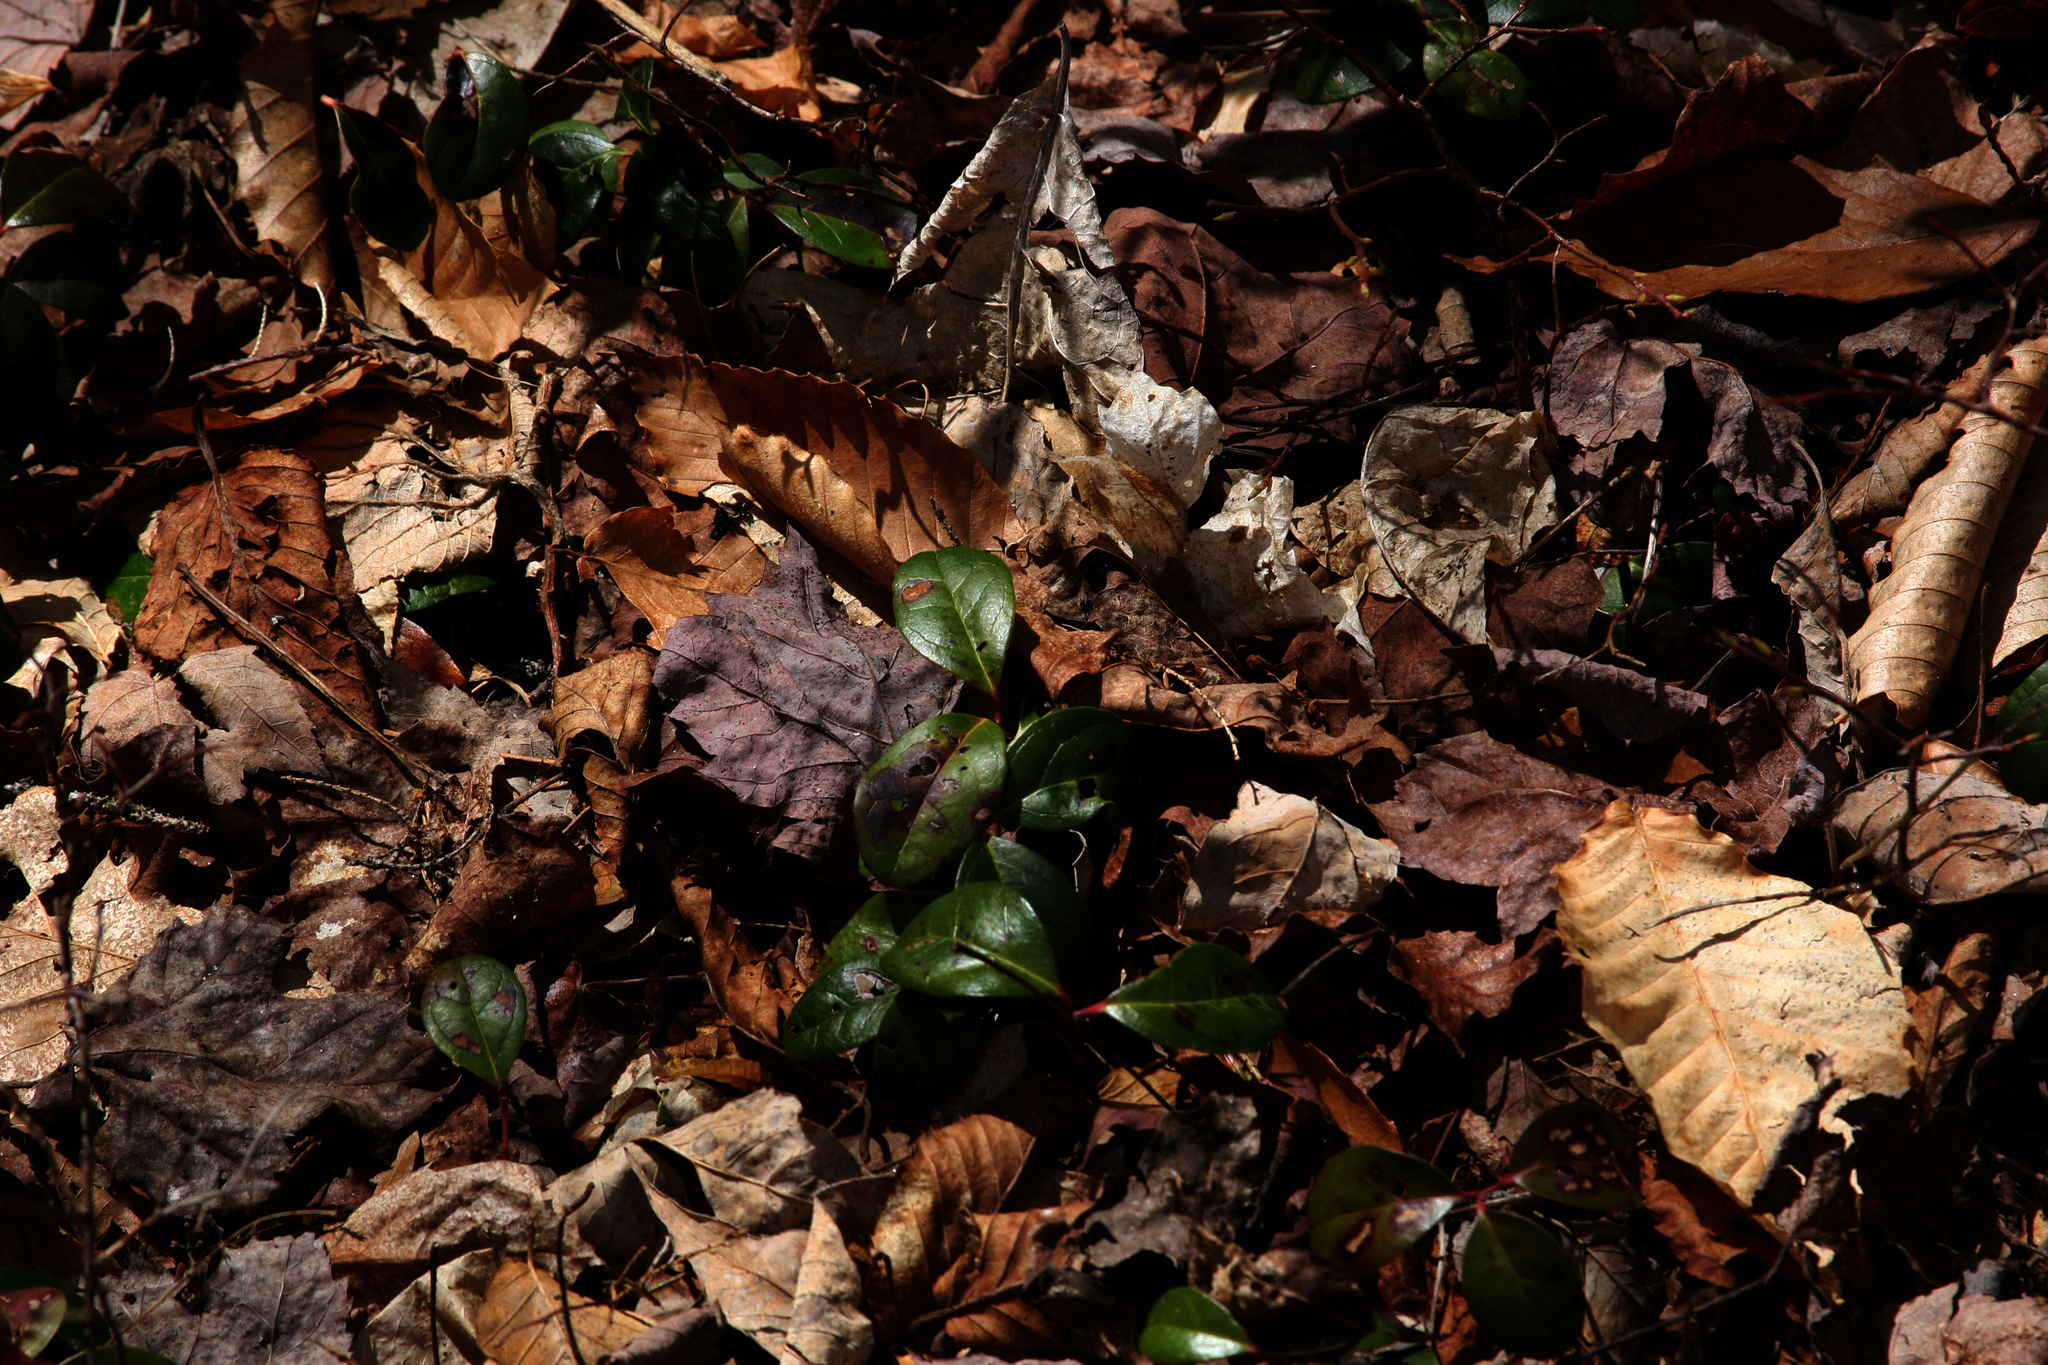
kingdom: Plantae
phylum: Tracheophyta
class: Magnoliopsida
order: Ericales
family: Ericaceae
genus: Gaultheria
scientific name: Gaultheria procumbens
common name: Checkerberry
